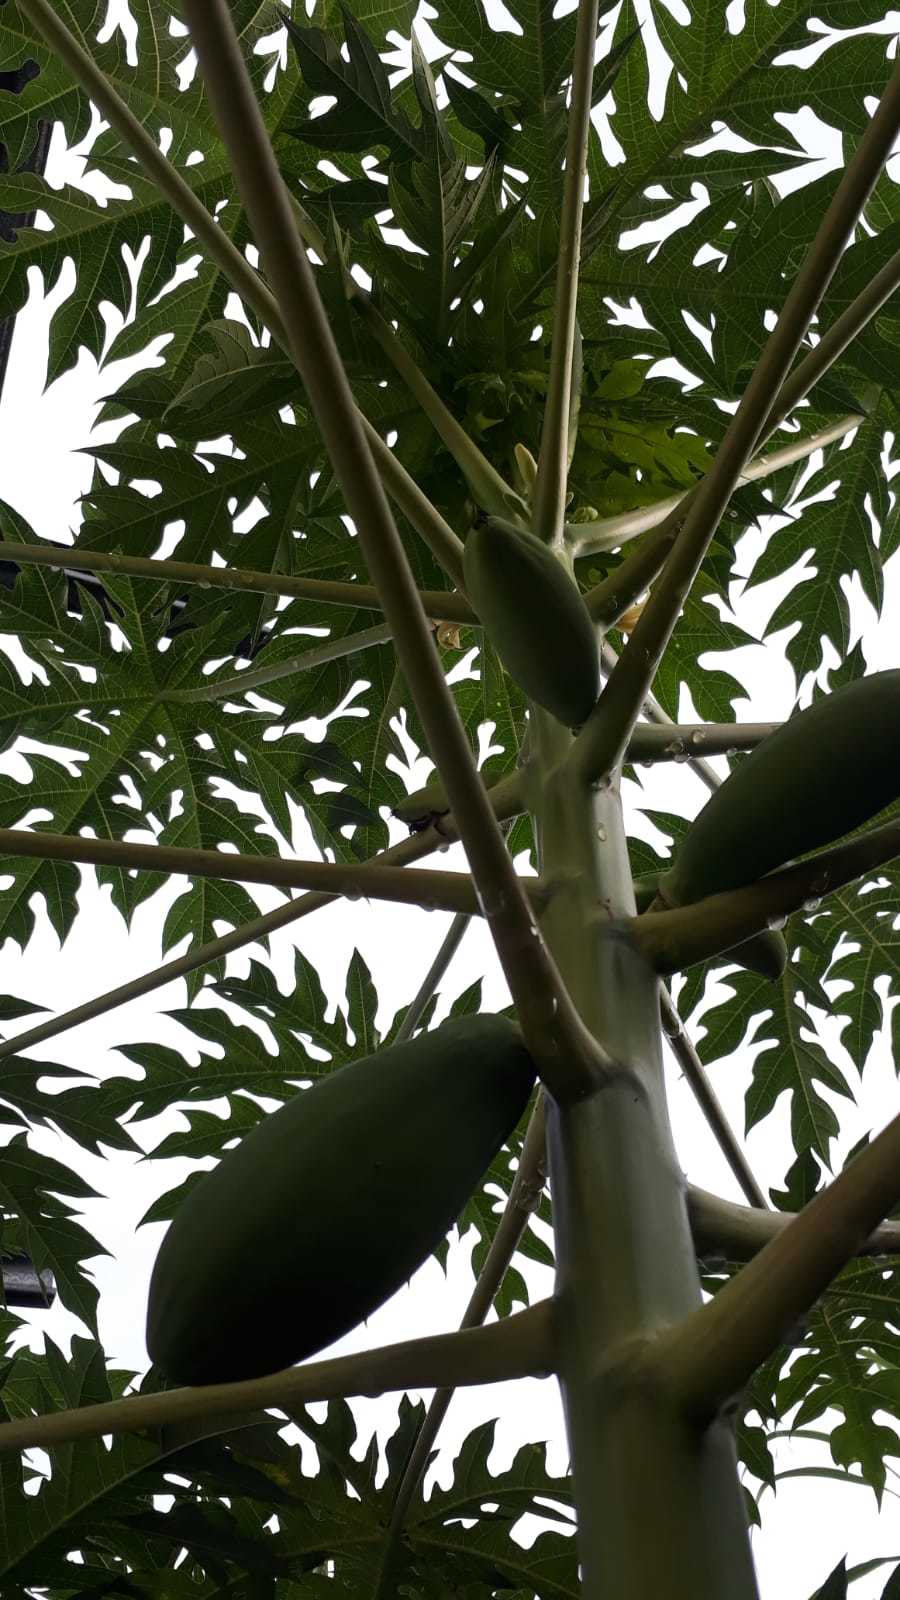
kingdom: Plantae
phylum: Tracheophyta
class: Magnoliopsida
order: Brassicales
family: Caricaceae
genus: Carica
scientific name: Carica papaya
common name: Papaya
